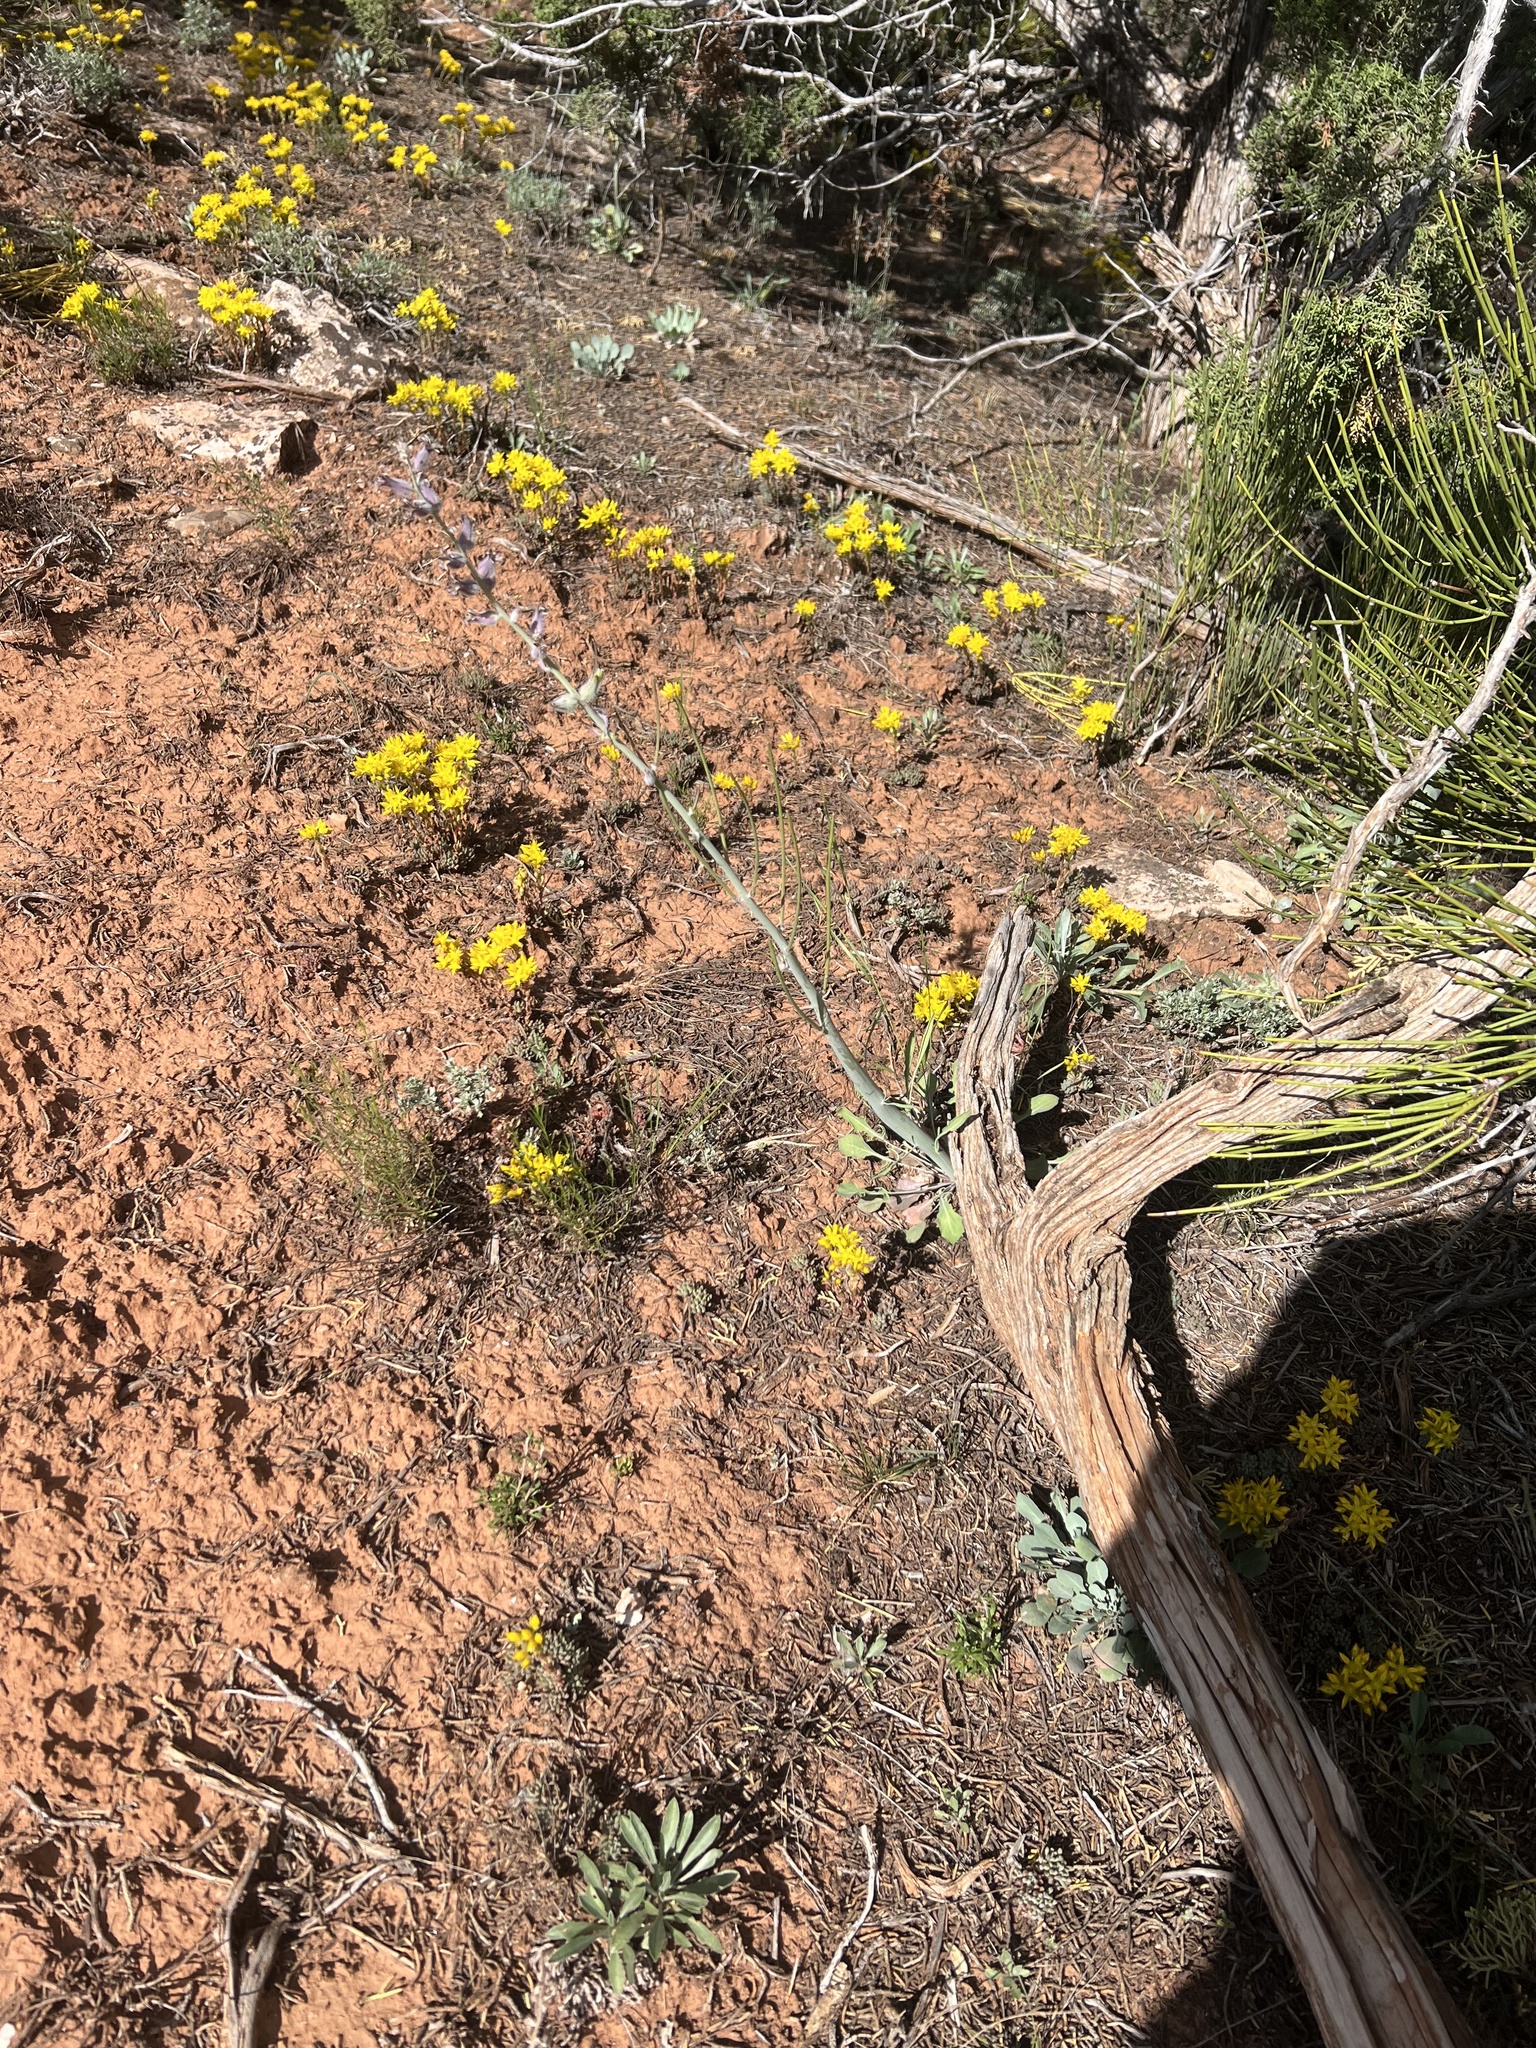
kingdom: Plantae
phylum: Tracheophyta
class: Magnoliopsida
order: Brassicales
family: Brassicaceae
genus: Streptanthus
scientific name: Streptanthus crassicaulis
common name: Thick-stem wild cabbage
